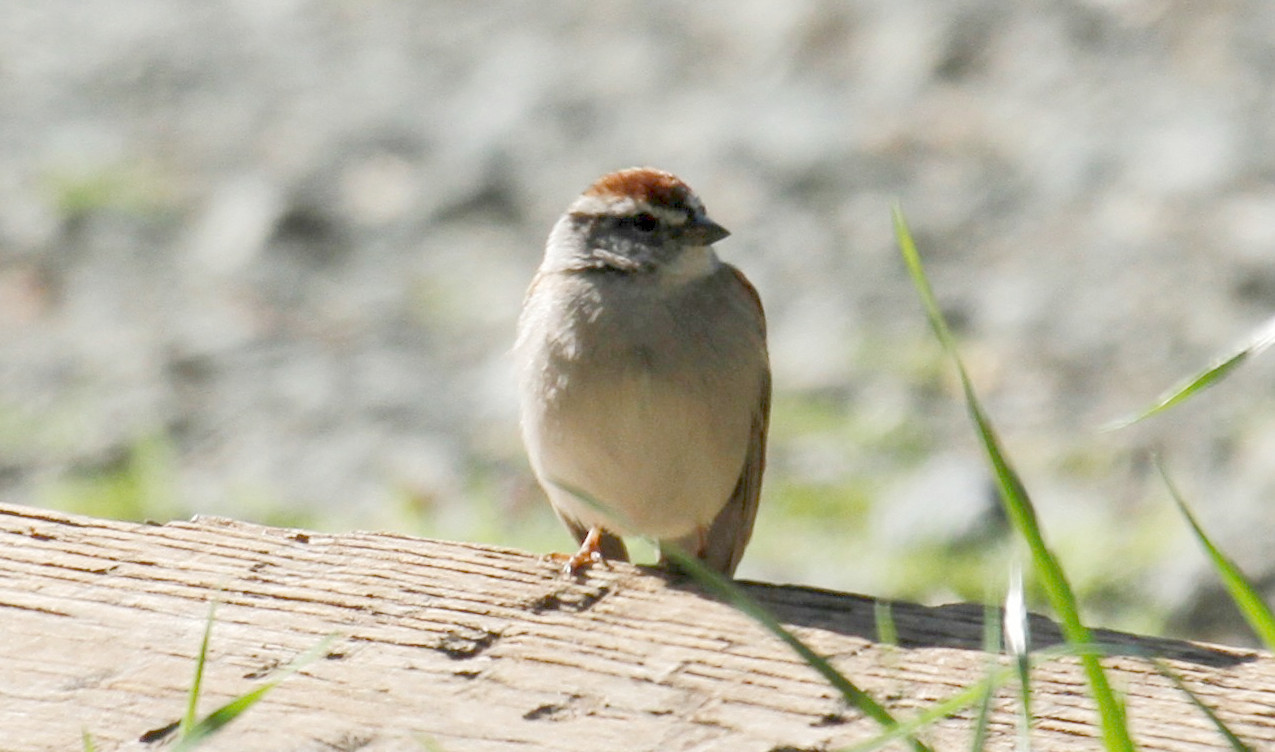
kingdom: Animalia
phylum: Chordata
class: Aves
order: Passeriformes
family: Passerellidae
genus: Spizella
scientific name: Spizella passerina
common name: Chipping sparrow
